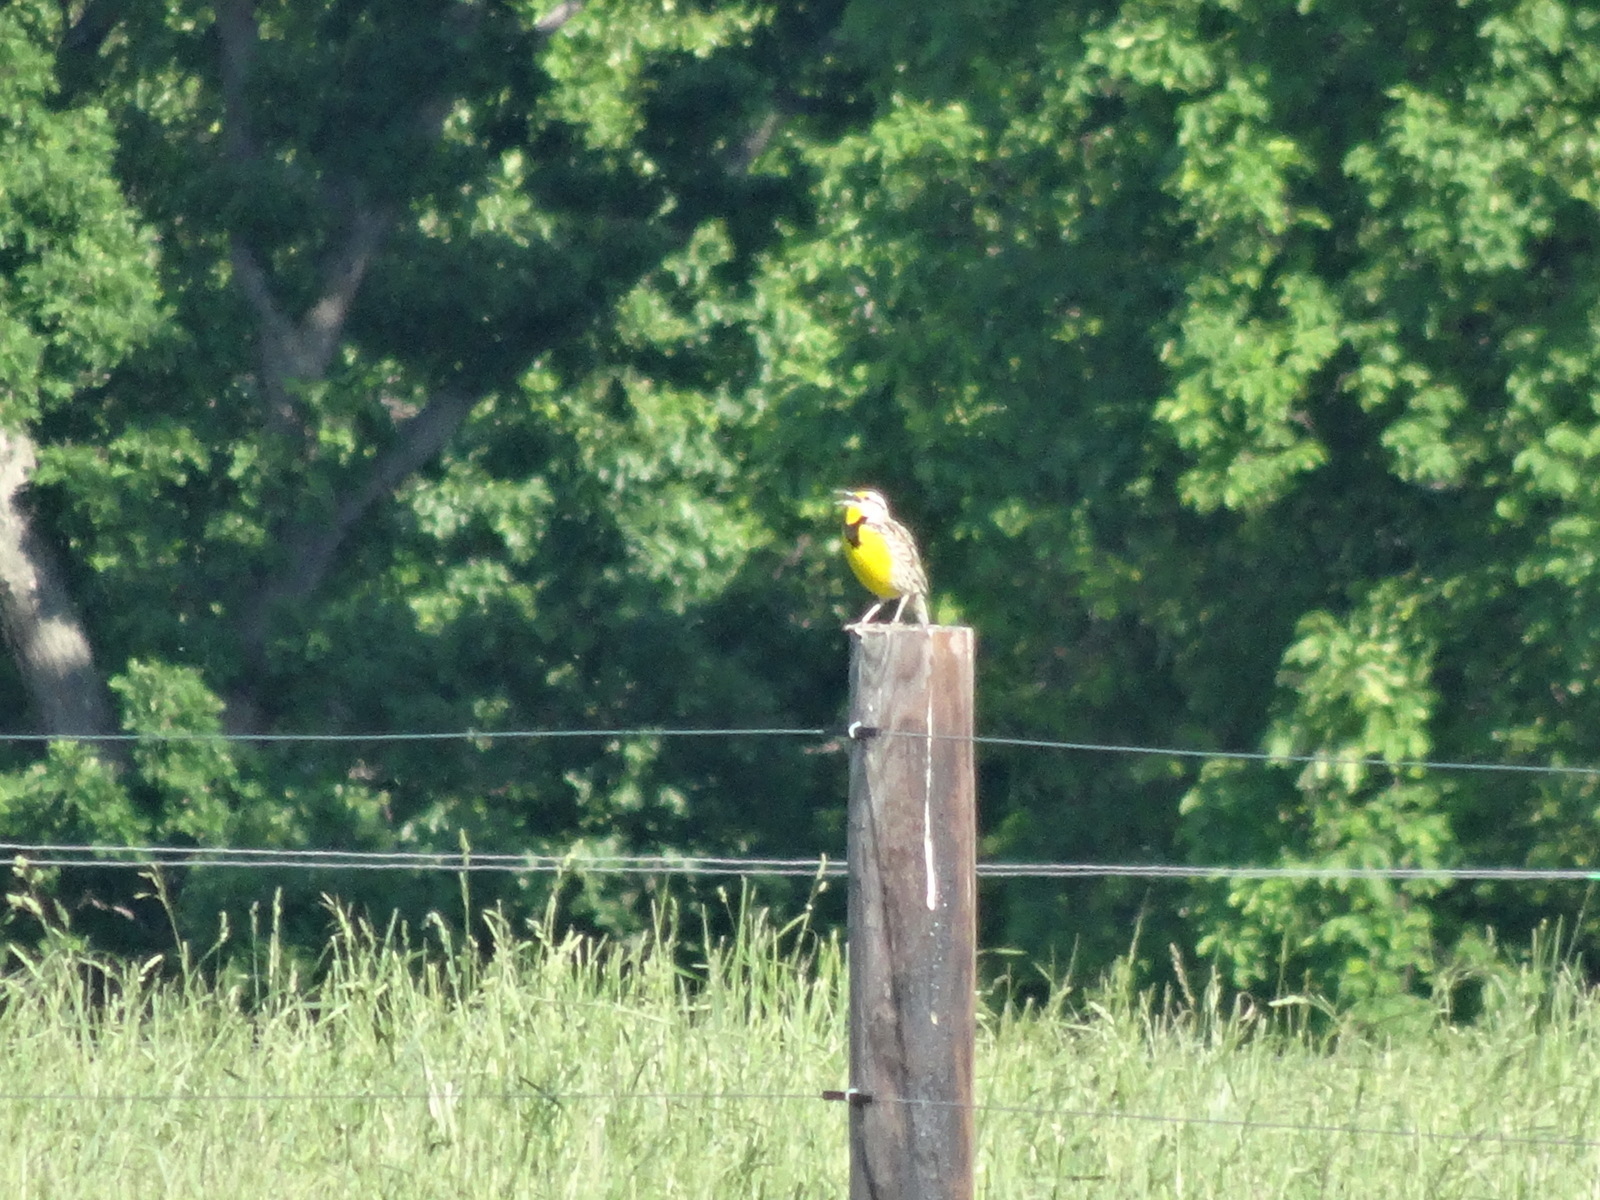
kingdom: Animalia
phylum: Chordata
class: Aves
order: Passeriformes
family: Icteridae
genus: Sturnella
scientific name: Sturnella magna
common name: Eastern meadowlark
